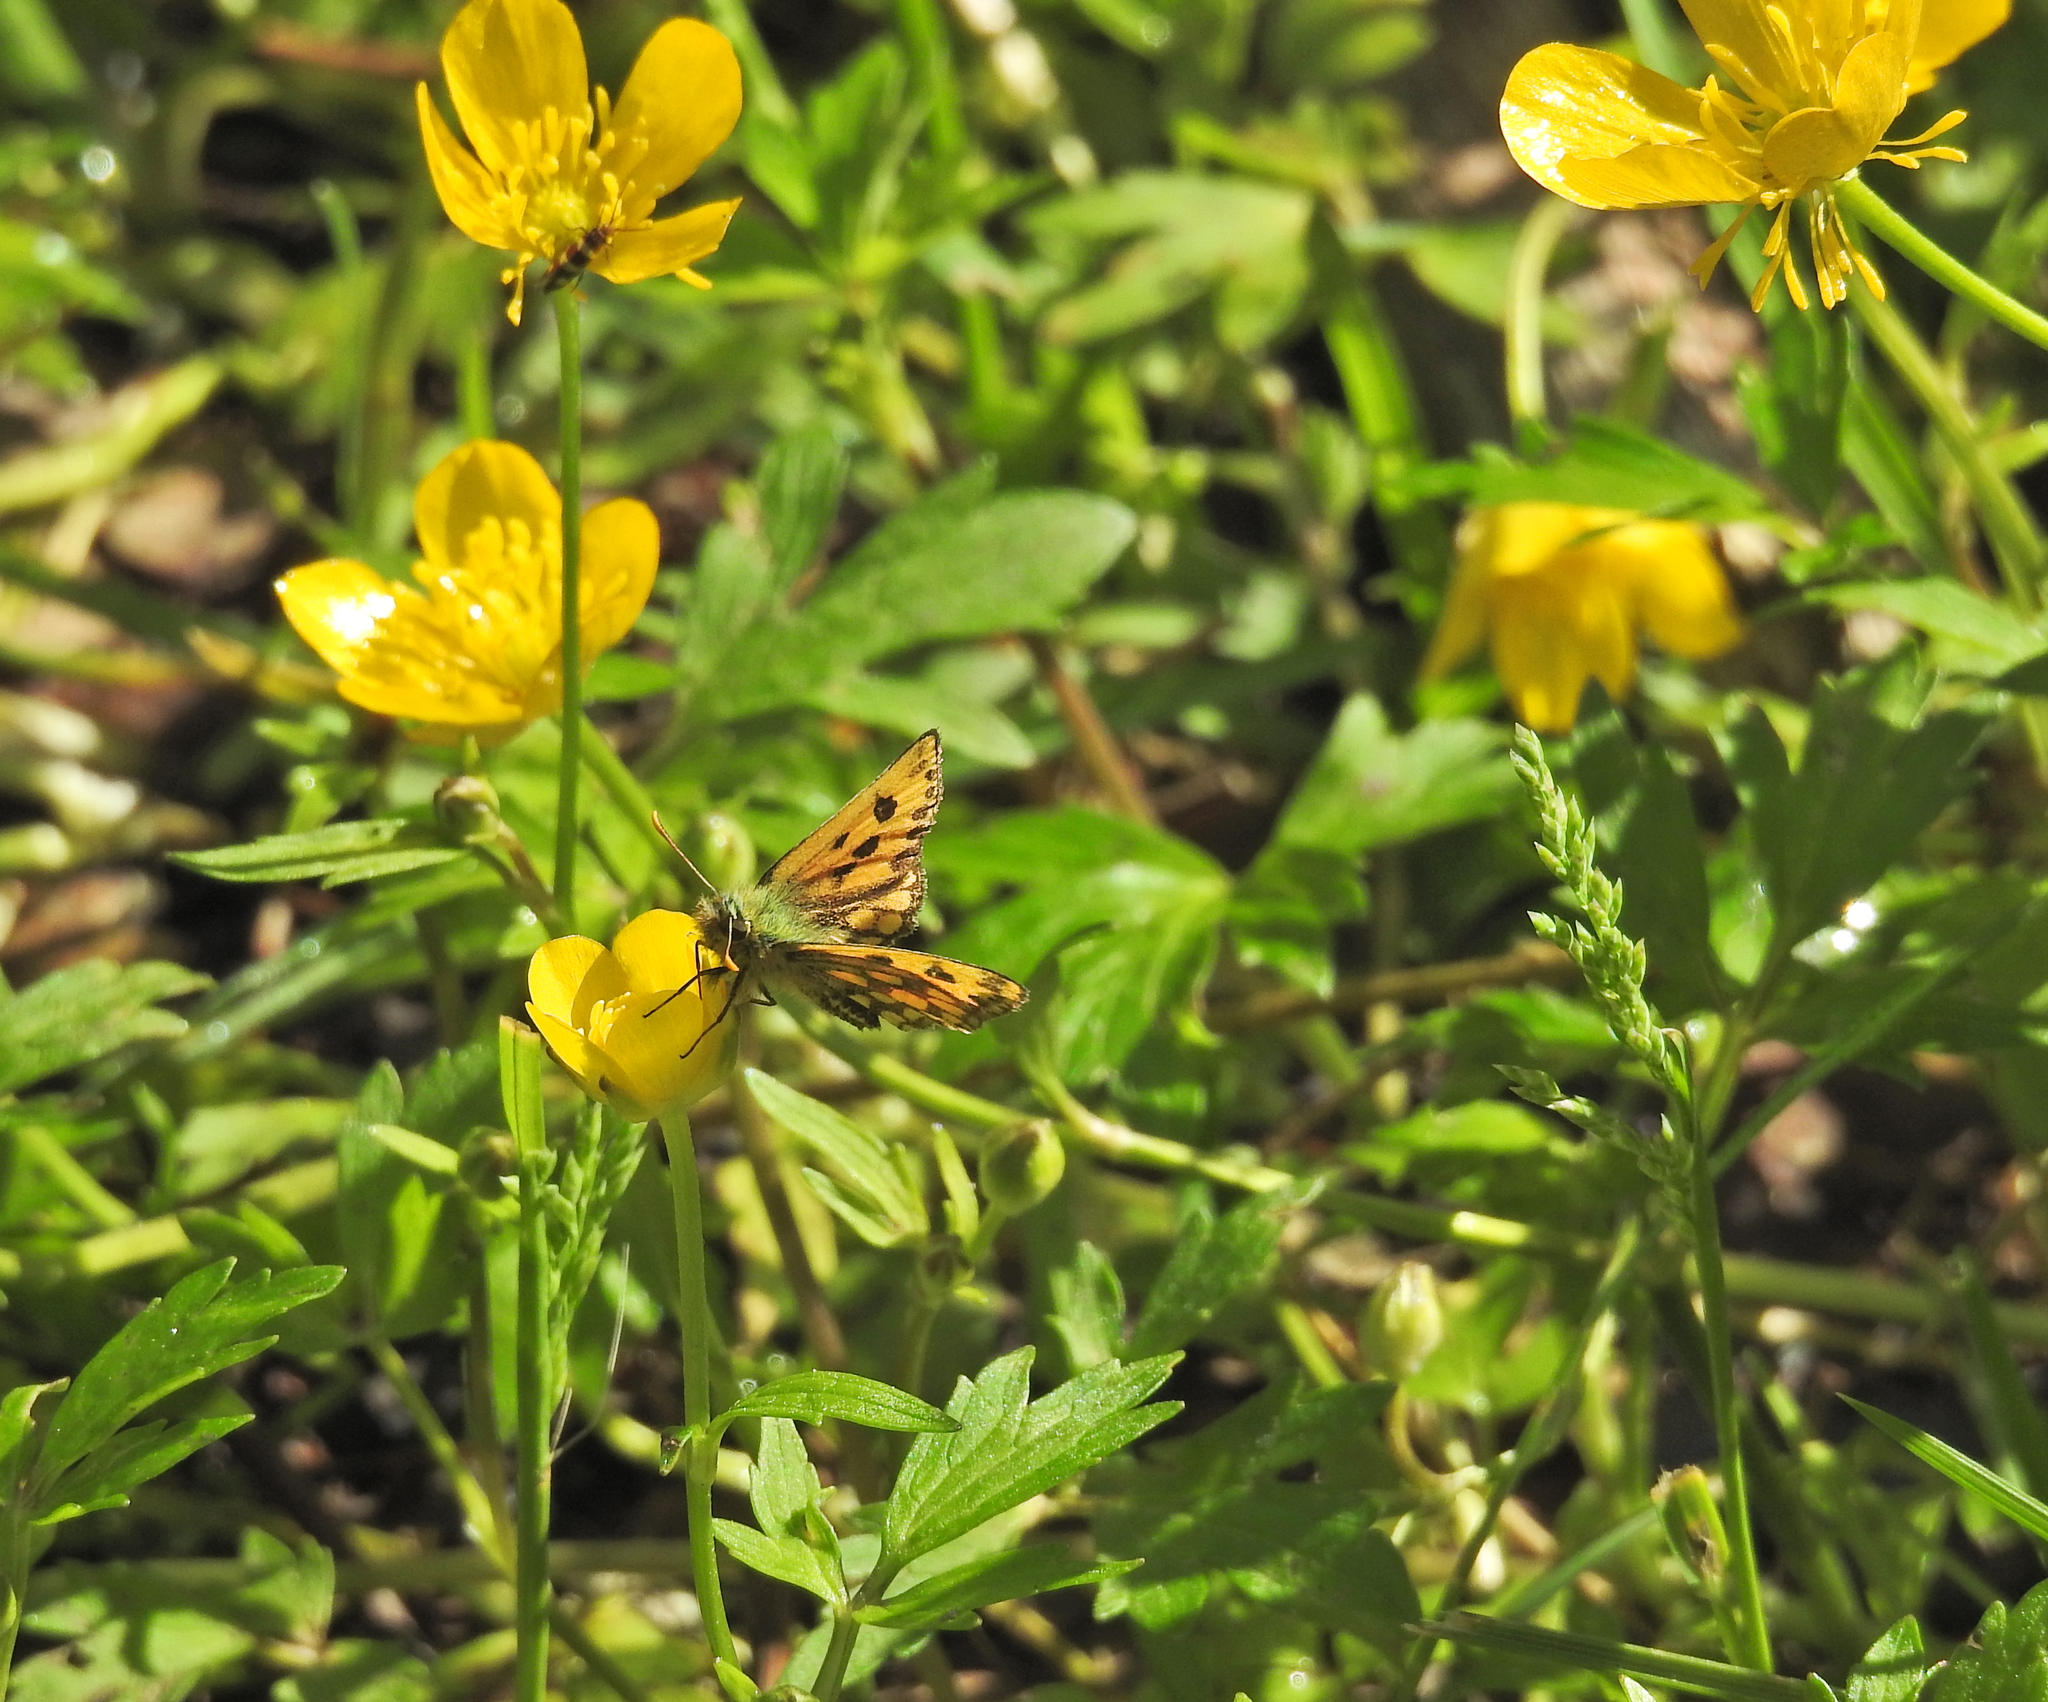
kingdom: Animalia
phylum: Arthropoda
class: Insecta
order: Lepidoptera
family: Hesperiidae
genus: Carterocephalus
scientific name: Carterocephalus silvicola
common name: Northern chequered skipper
